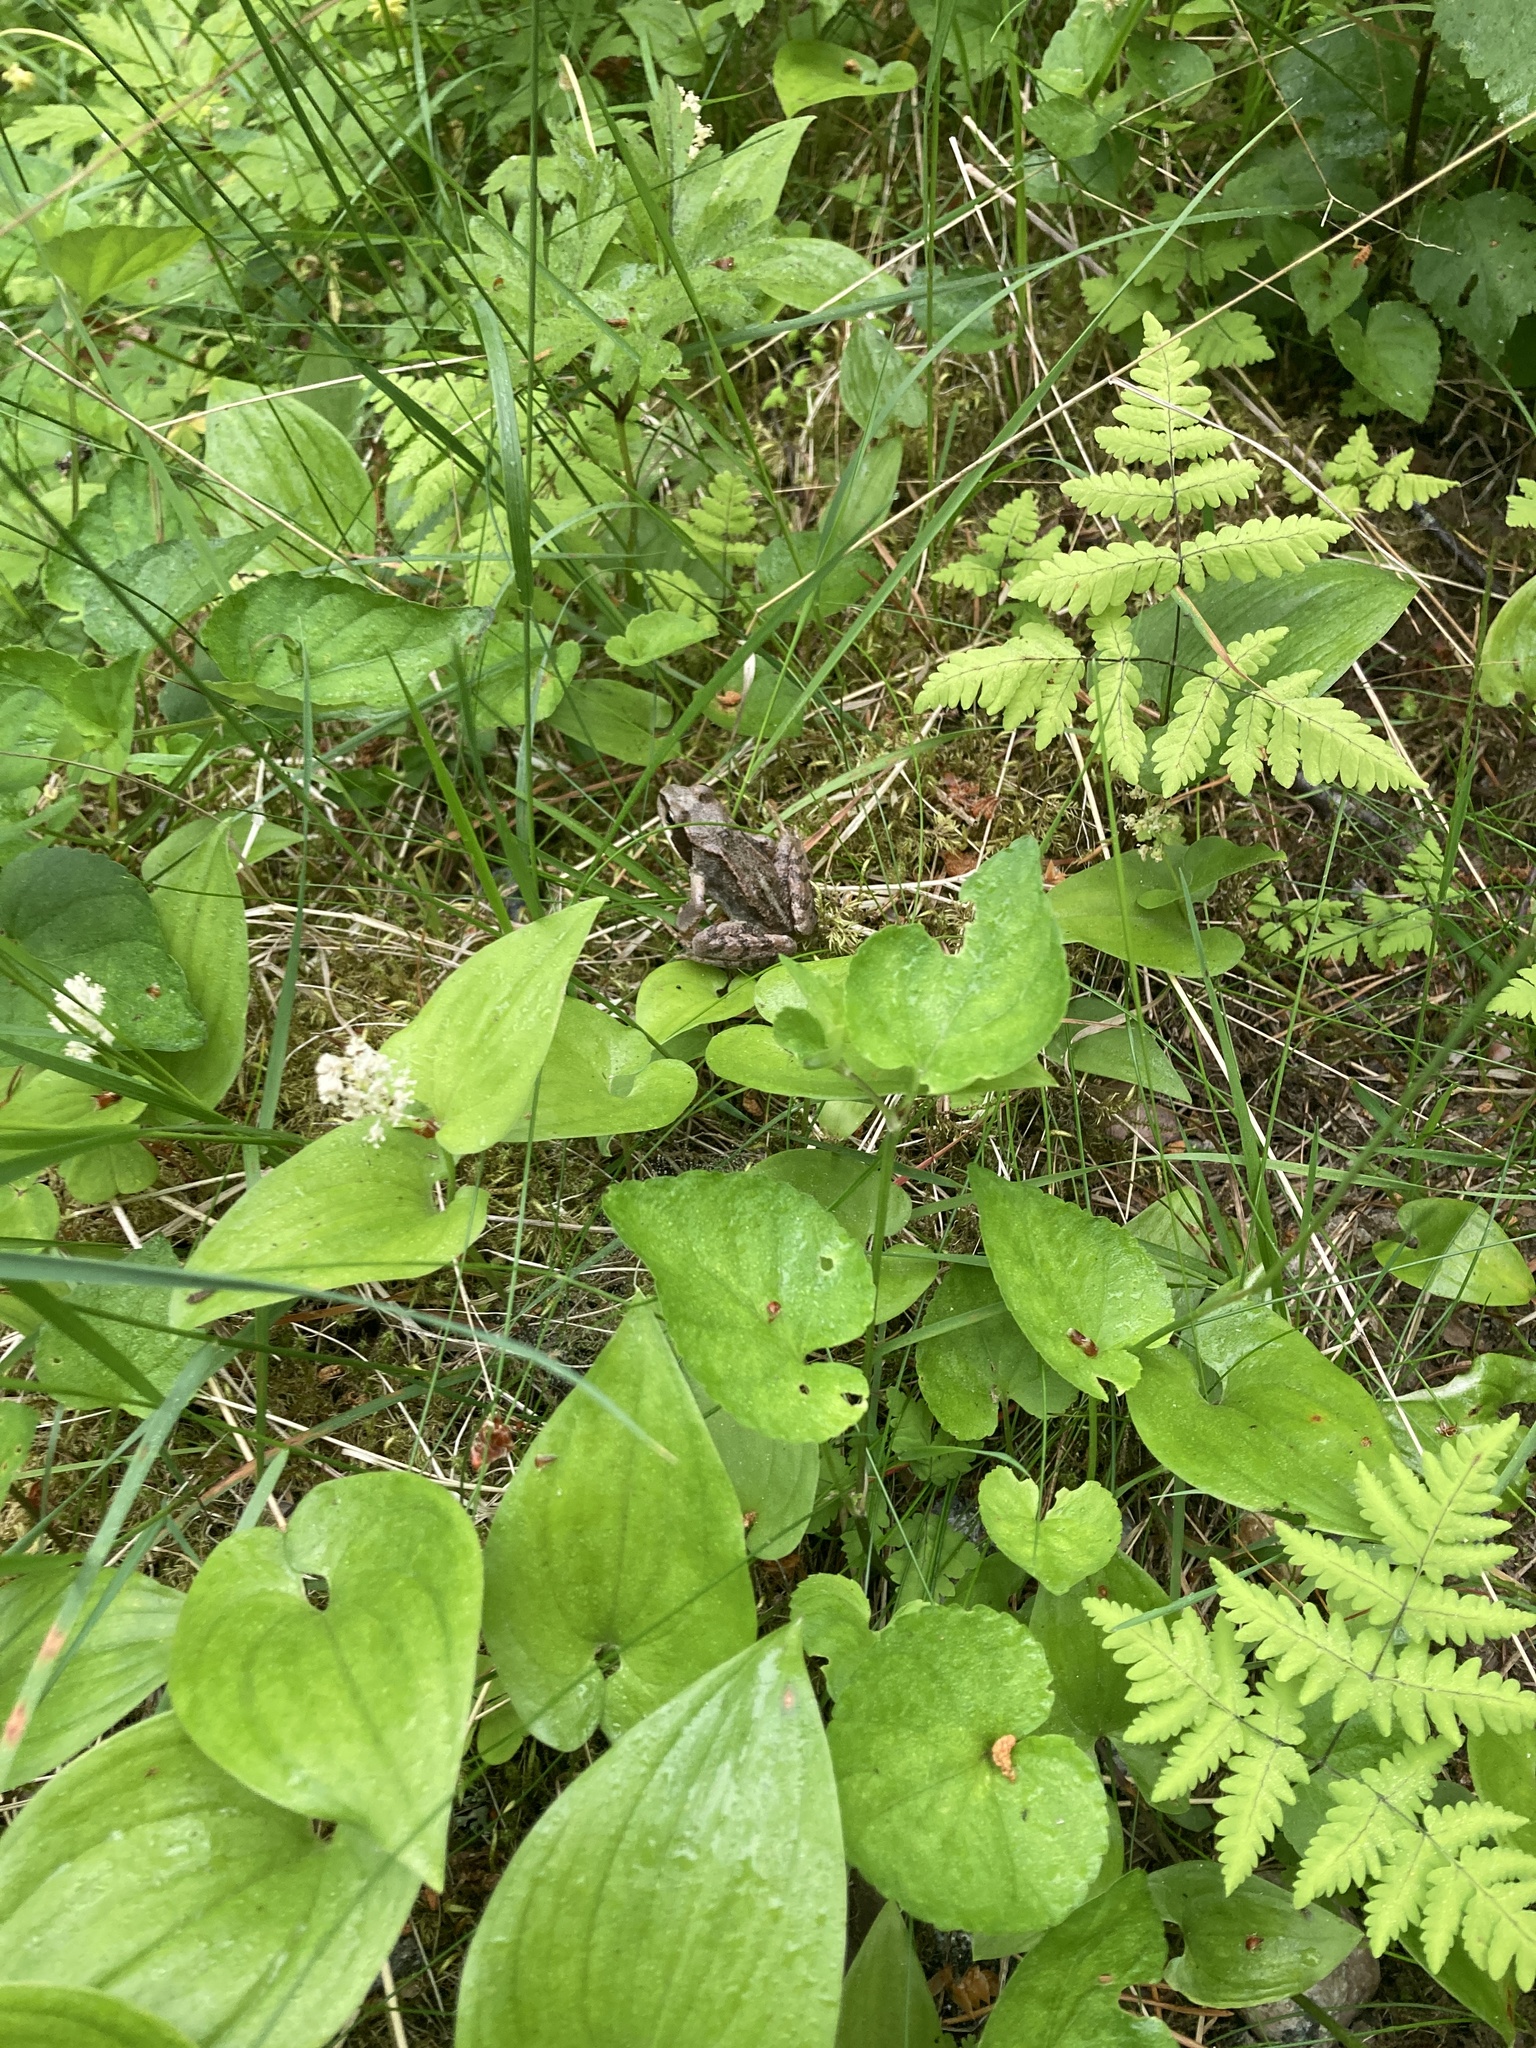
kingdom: Animalia
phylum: Chordata
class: Amphibia
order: Anura
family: Ranidae
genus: Rana
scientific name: Rana temporaria
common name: Common frog
